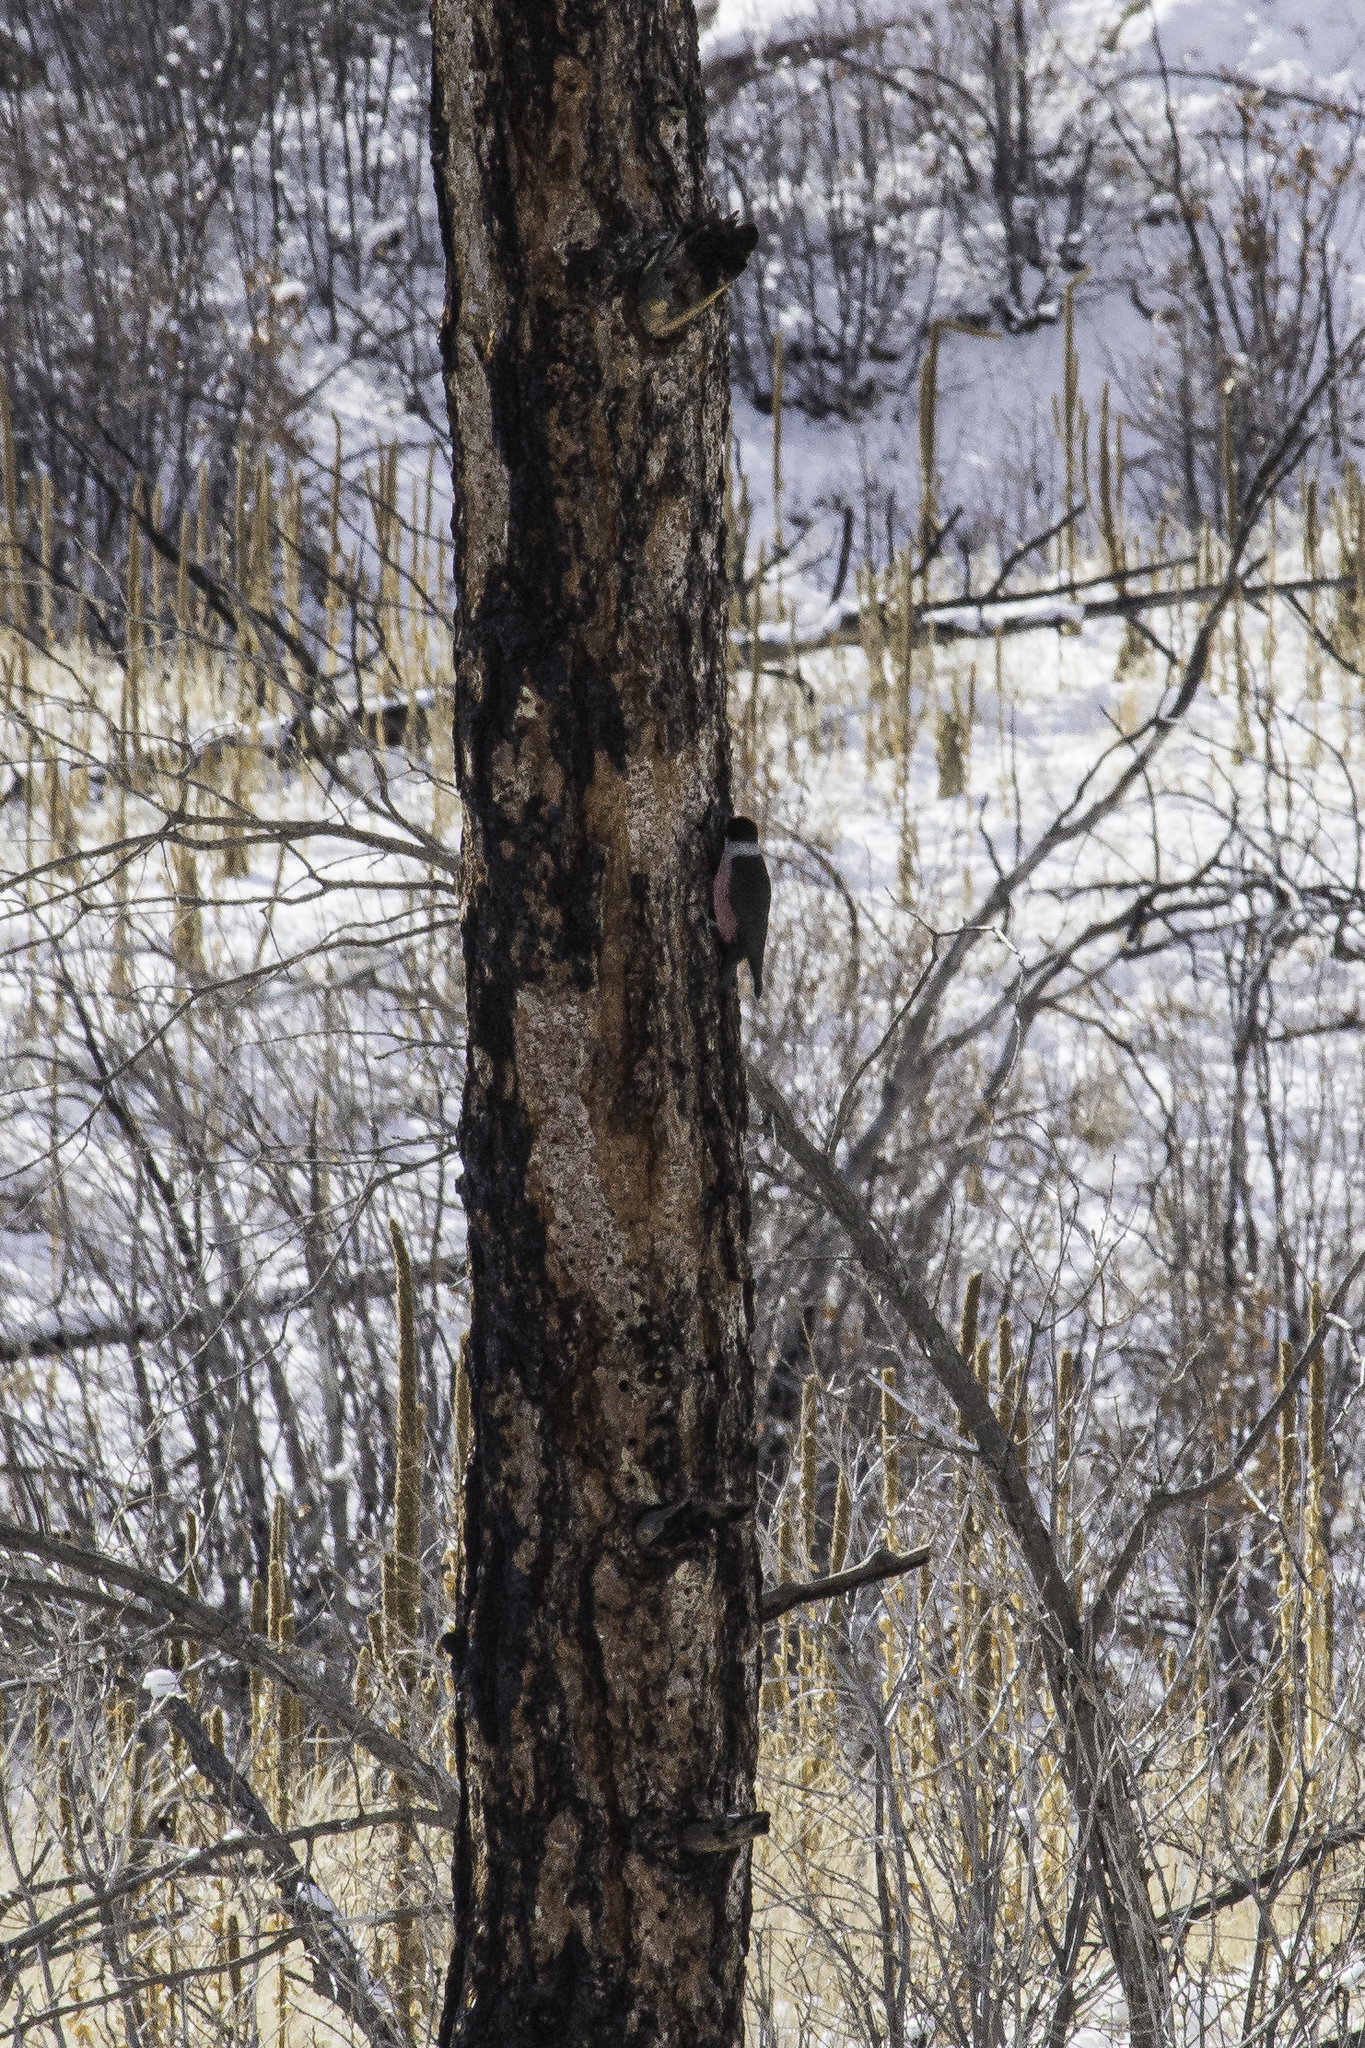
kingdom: Animalia
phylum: Chordata
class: Aves
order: Piciformes
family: Picidae
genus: Melanerpes
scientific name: Melanerpes lewis
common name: Lewis's woodpecker
